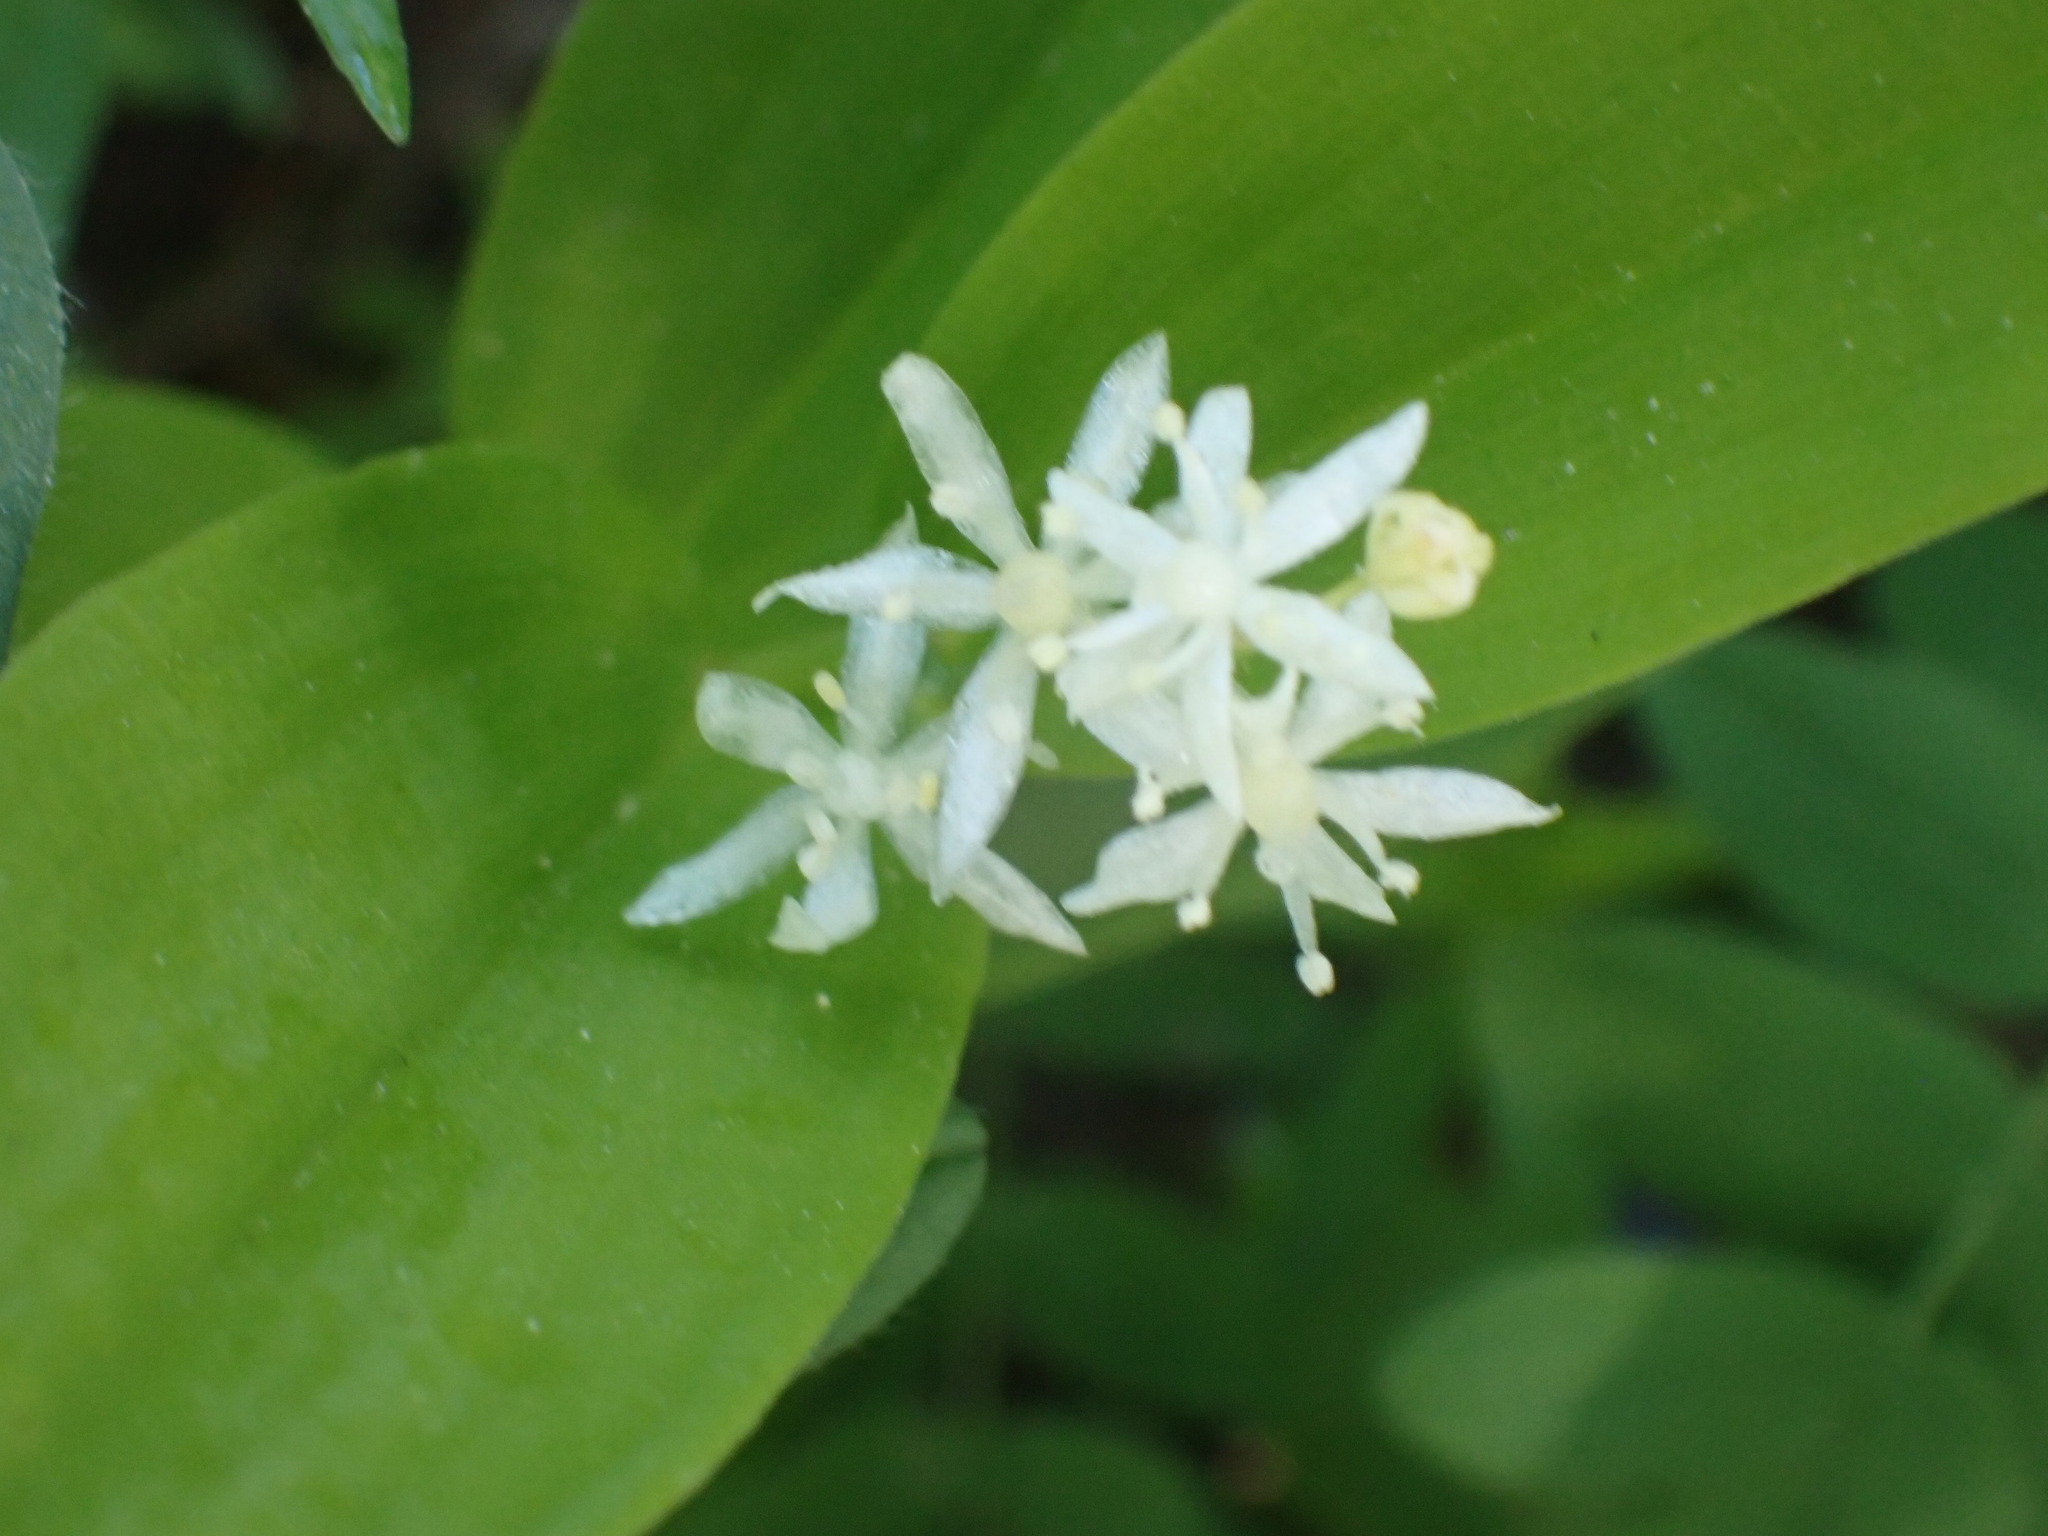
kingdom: Plantae
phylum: Tracheophyta
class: Liliopsida
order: Asparagales
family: Asparagaceae
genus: Maianthemum
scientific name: Maianthemum stellatum
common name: Little false solomon's seal
